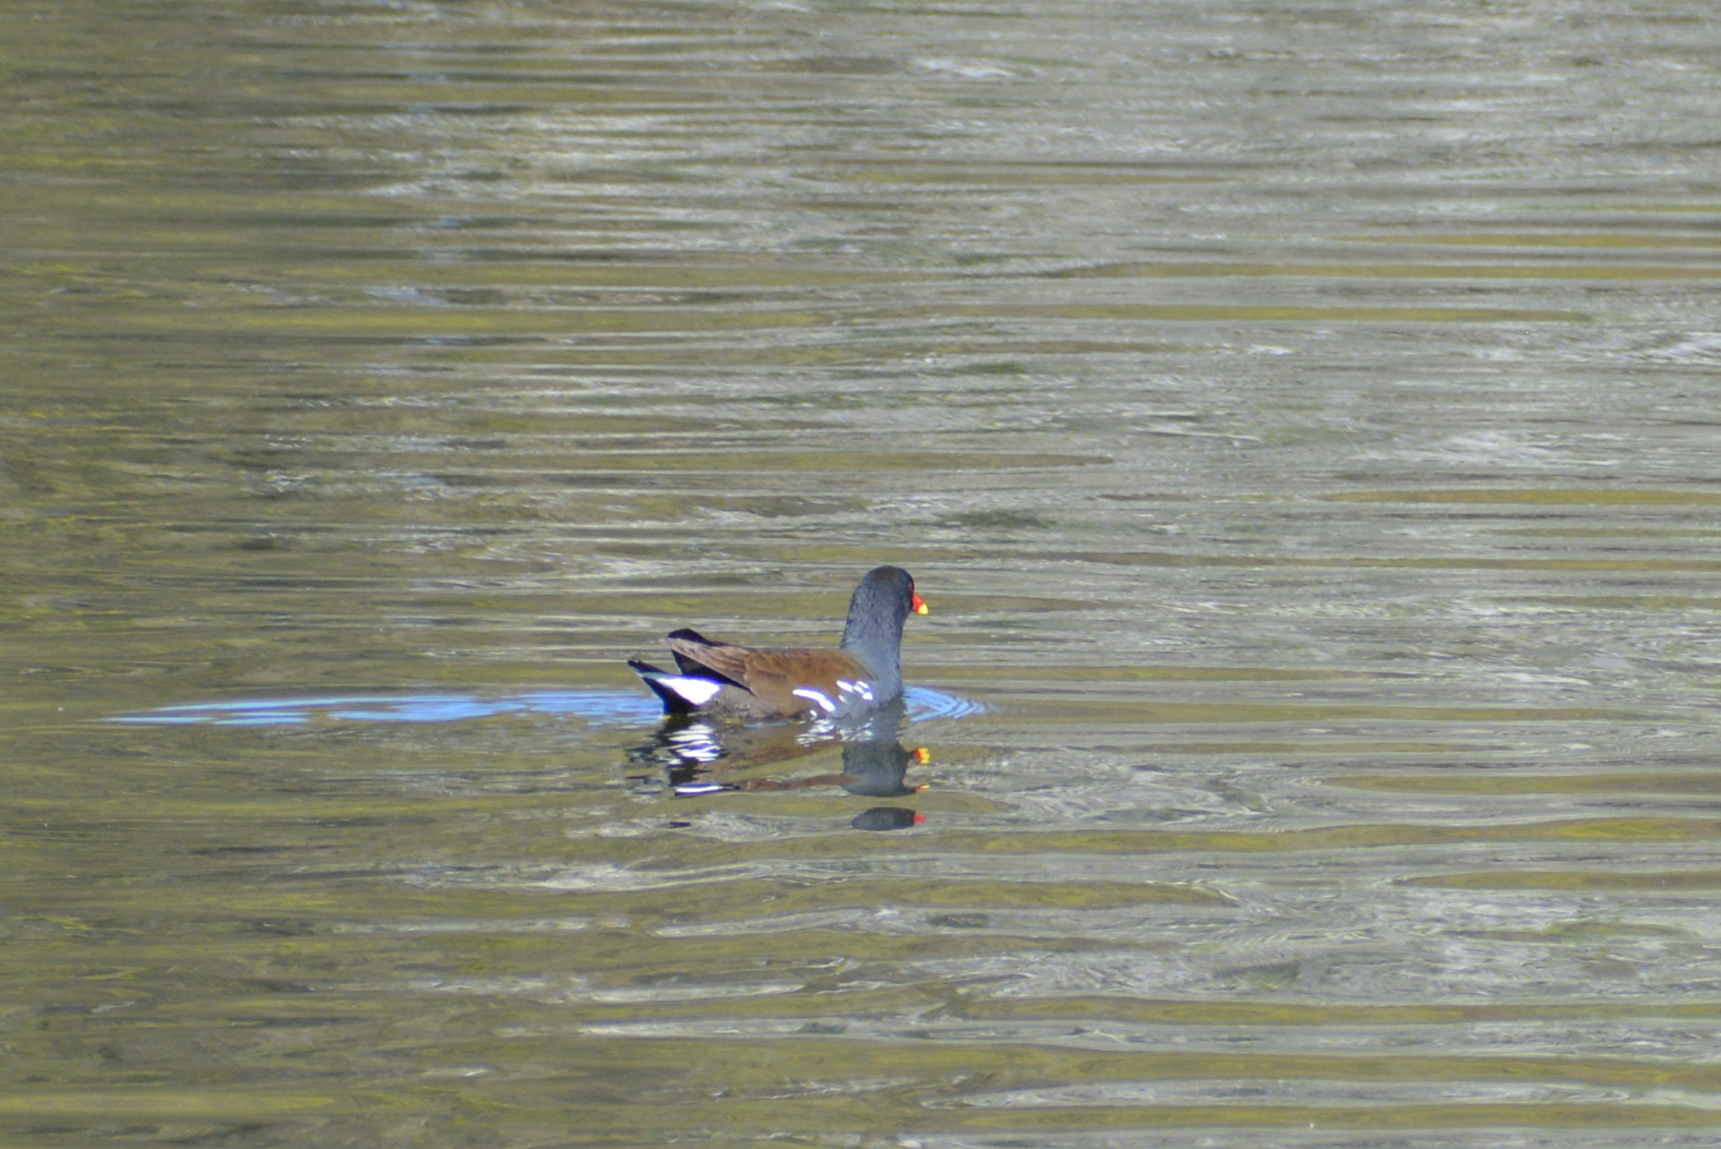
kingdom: Animalia
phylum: Chordata
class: Aves
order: Gruiformes
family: Rallidae
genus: Gallinula
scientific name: Gallinula chloropus
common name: Common moorhen
